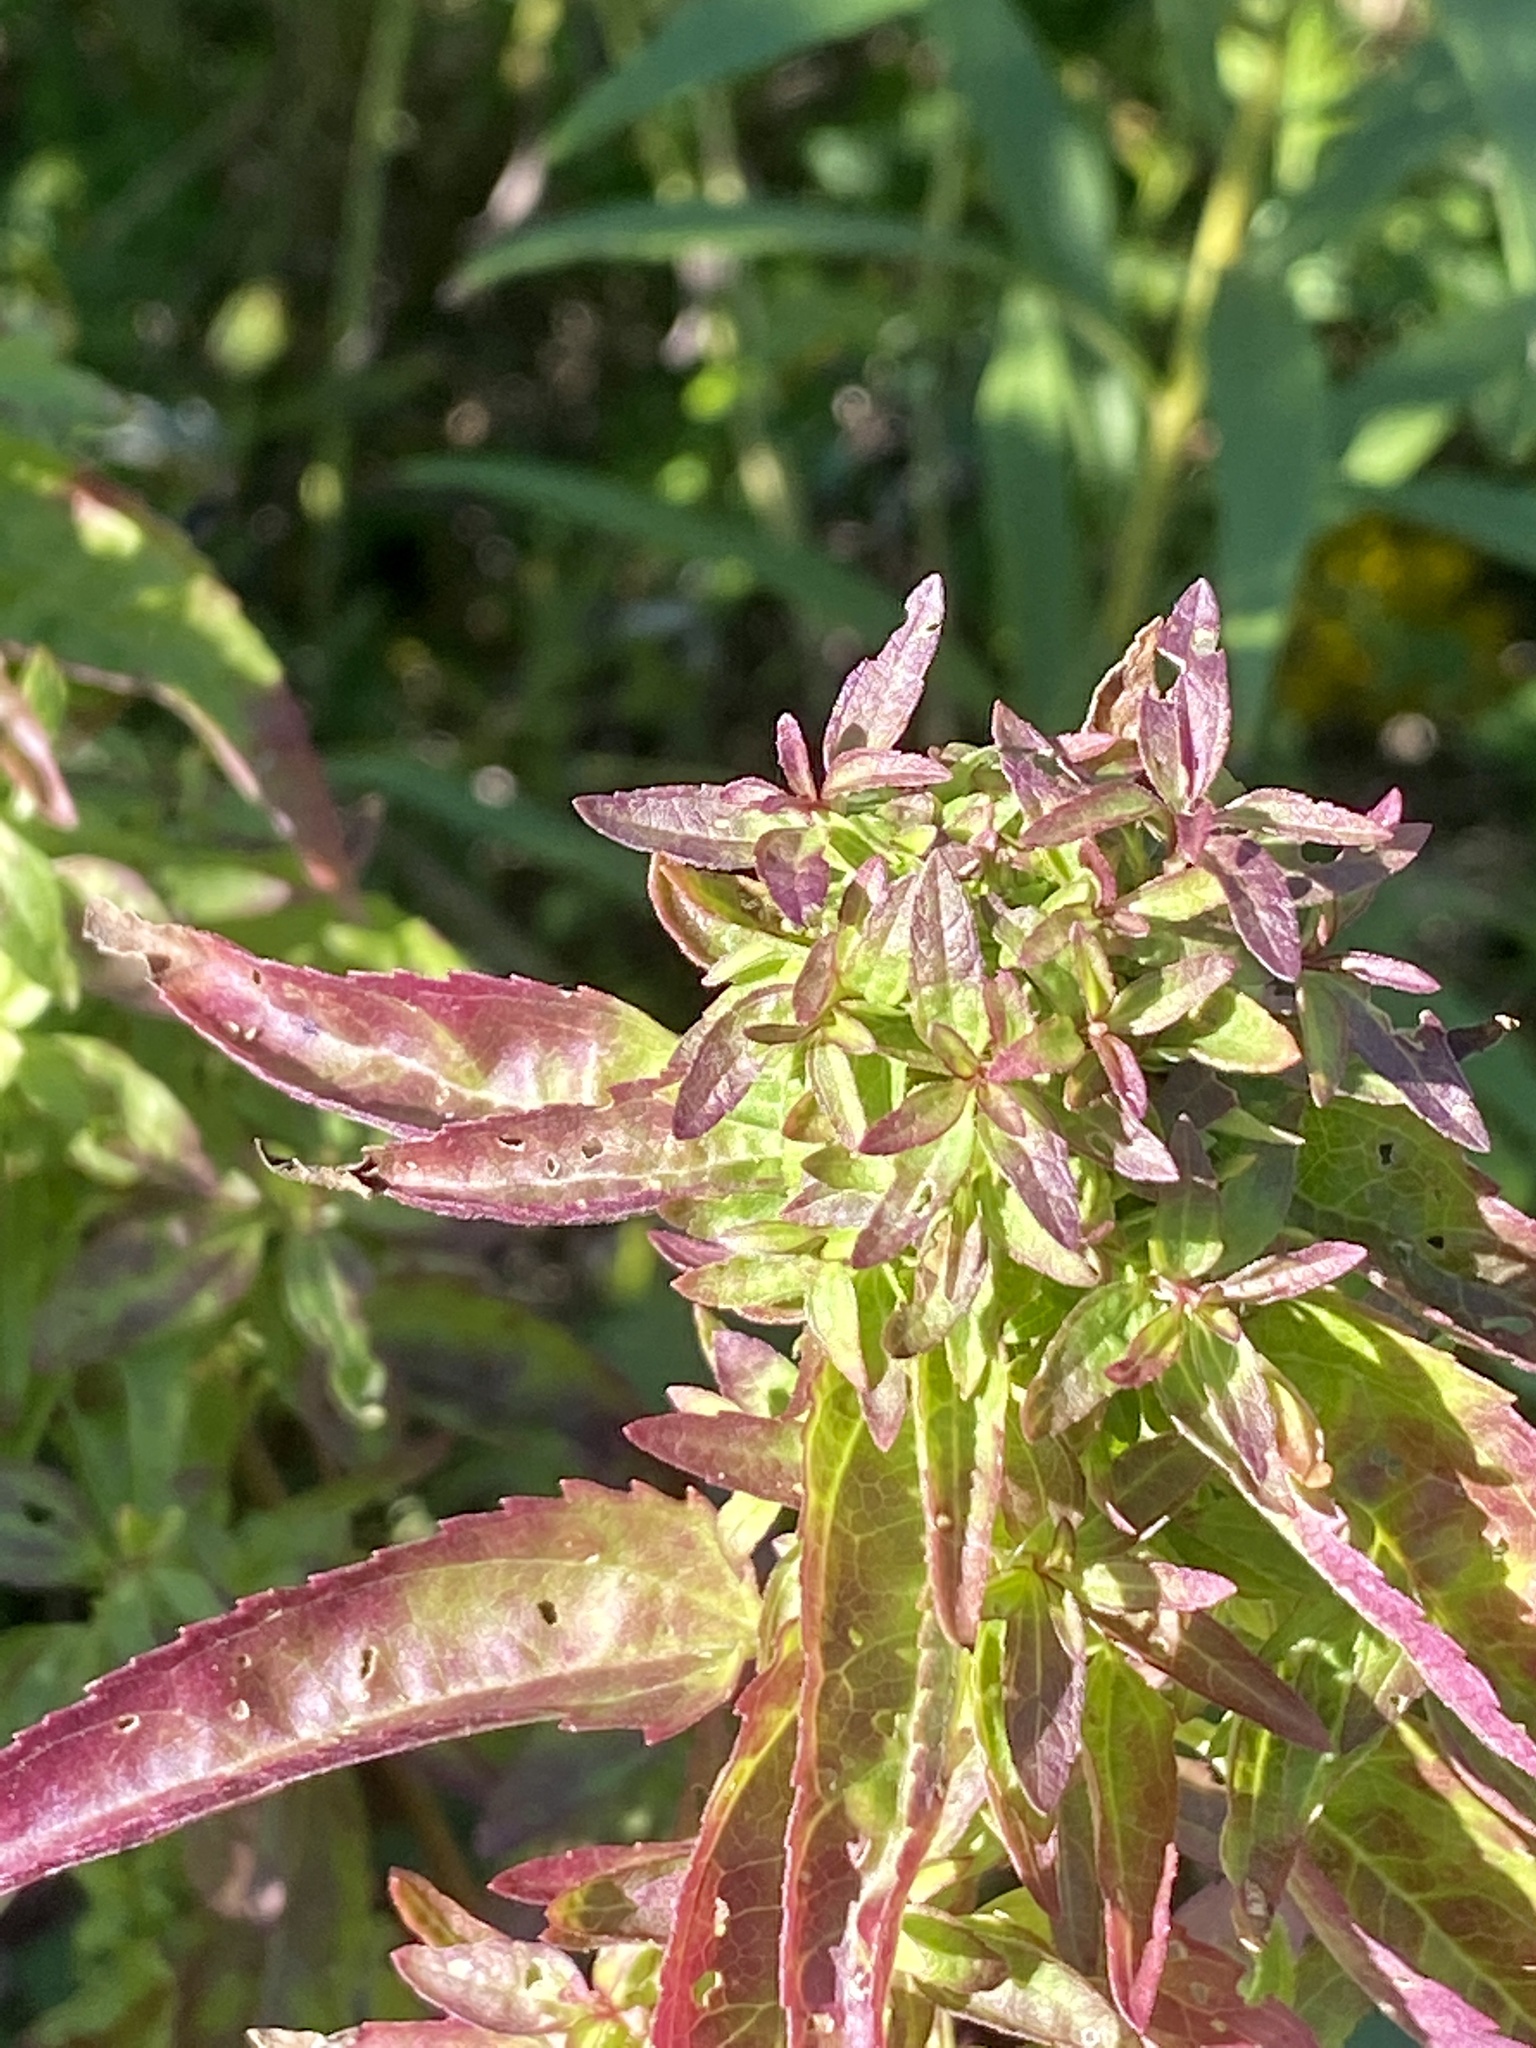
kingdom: Plantae
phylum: Tracheophyta
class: Magnoliopsida
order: Asterales
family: Asteraceae
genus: Eupatorium
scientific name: Eupatorium serotinum
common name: Late boneset
